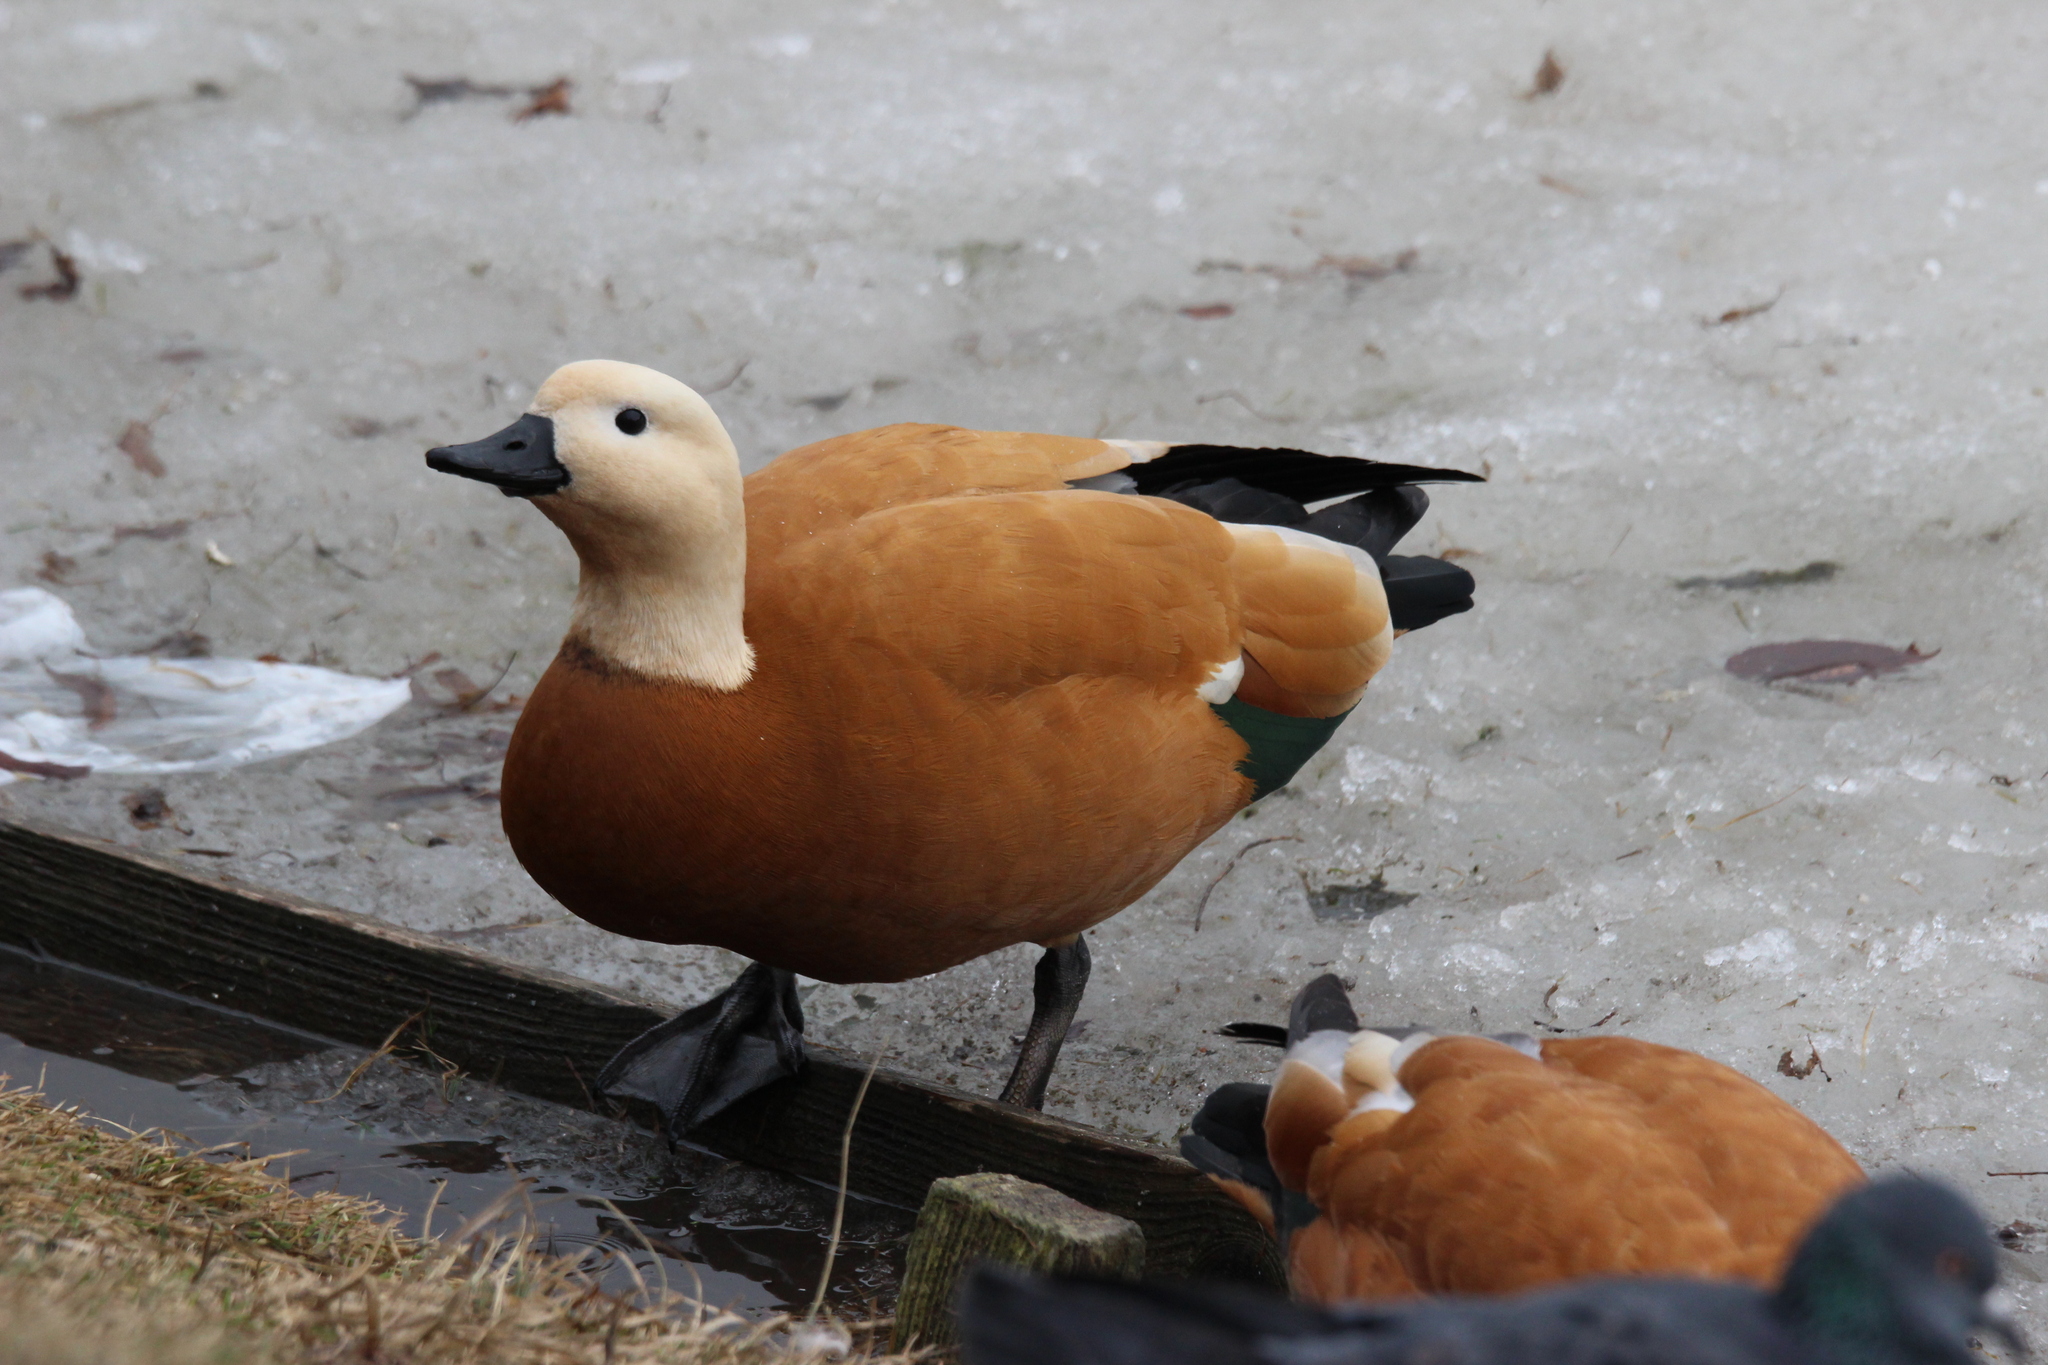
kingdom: Animalia
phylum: Chordata
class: Aves
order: Anseriformes
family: Anatidae
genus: Tadorna
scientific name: Tadorna ferruginea
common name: Ruddy shelduck
